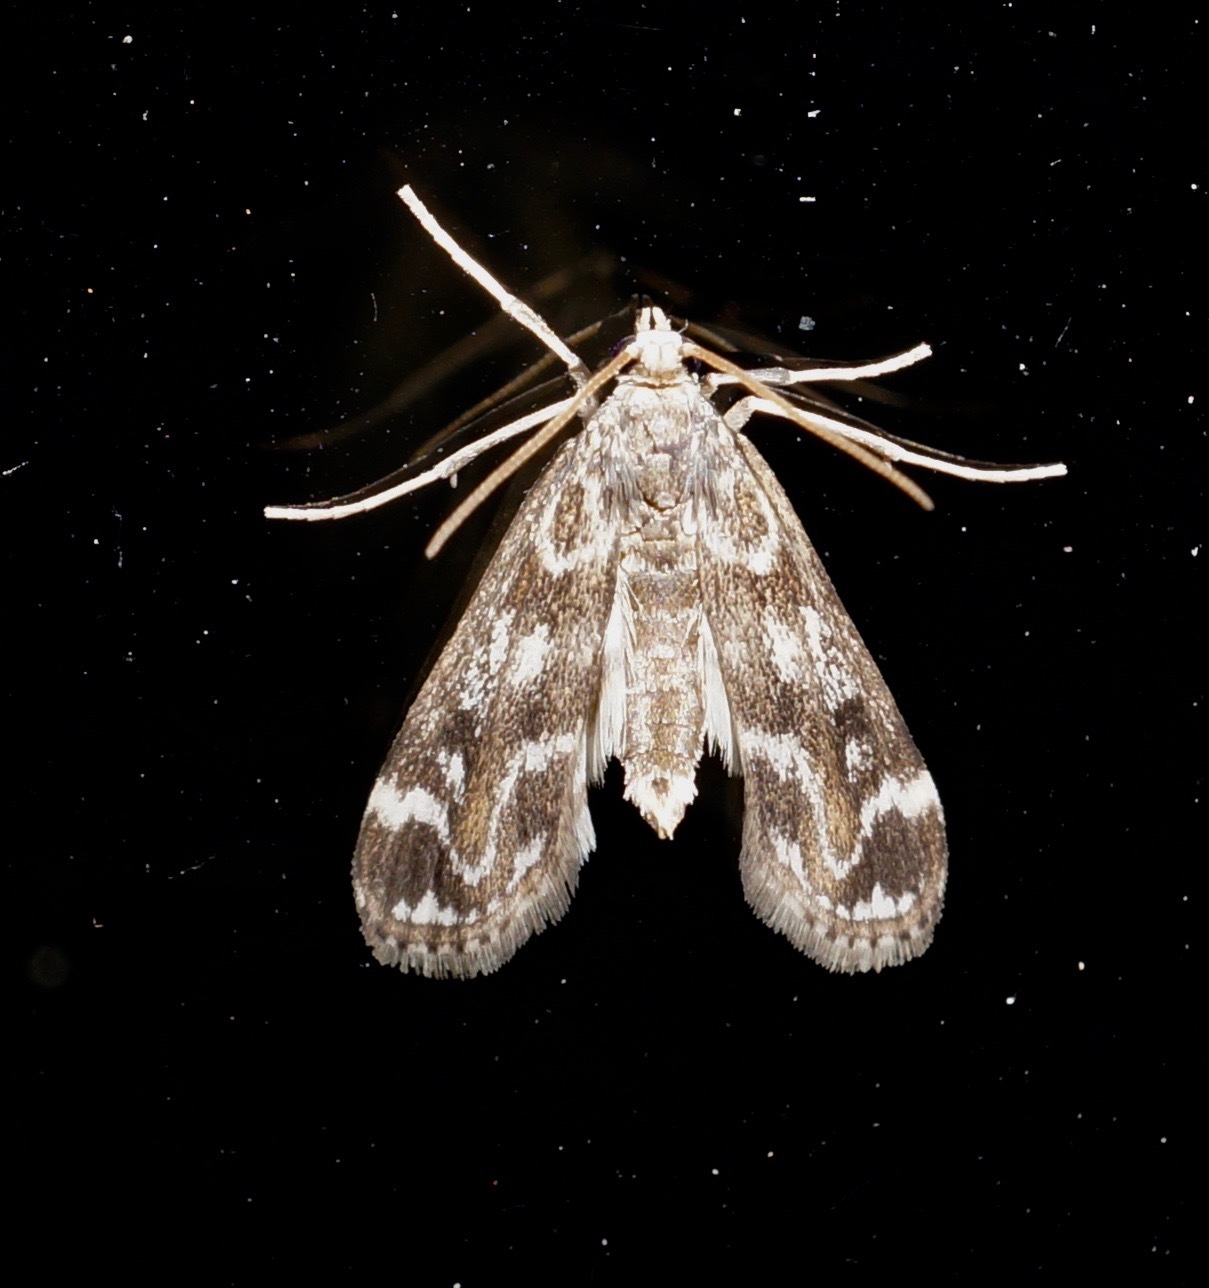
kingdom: Animalia
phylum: Arthropoda
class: Insecta
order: Lepidoptera
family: Crambidae
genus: Hygraula
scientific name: Hygraula nitens
